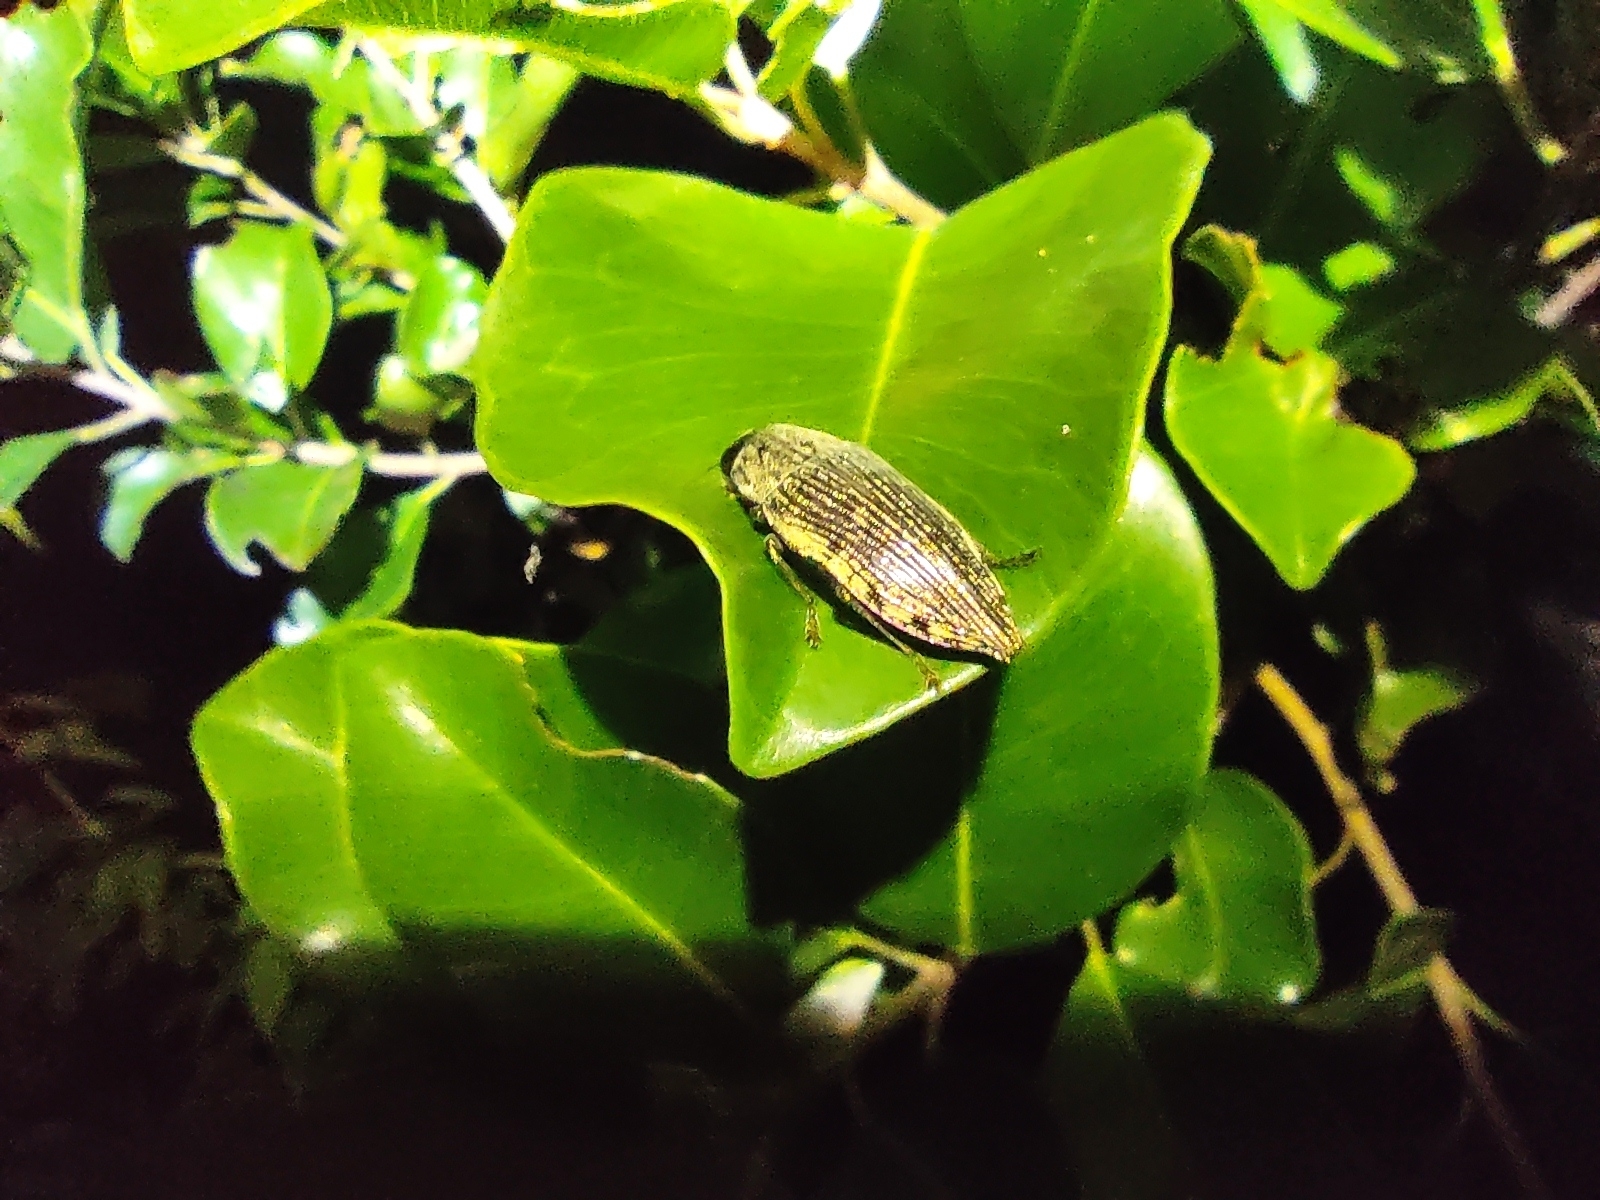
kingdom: Animalia
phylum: Arthropoda
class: Insecta
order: Coleoptera
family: Buprestidae
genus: Lampetis
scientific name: Lampetis patruelis
